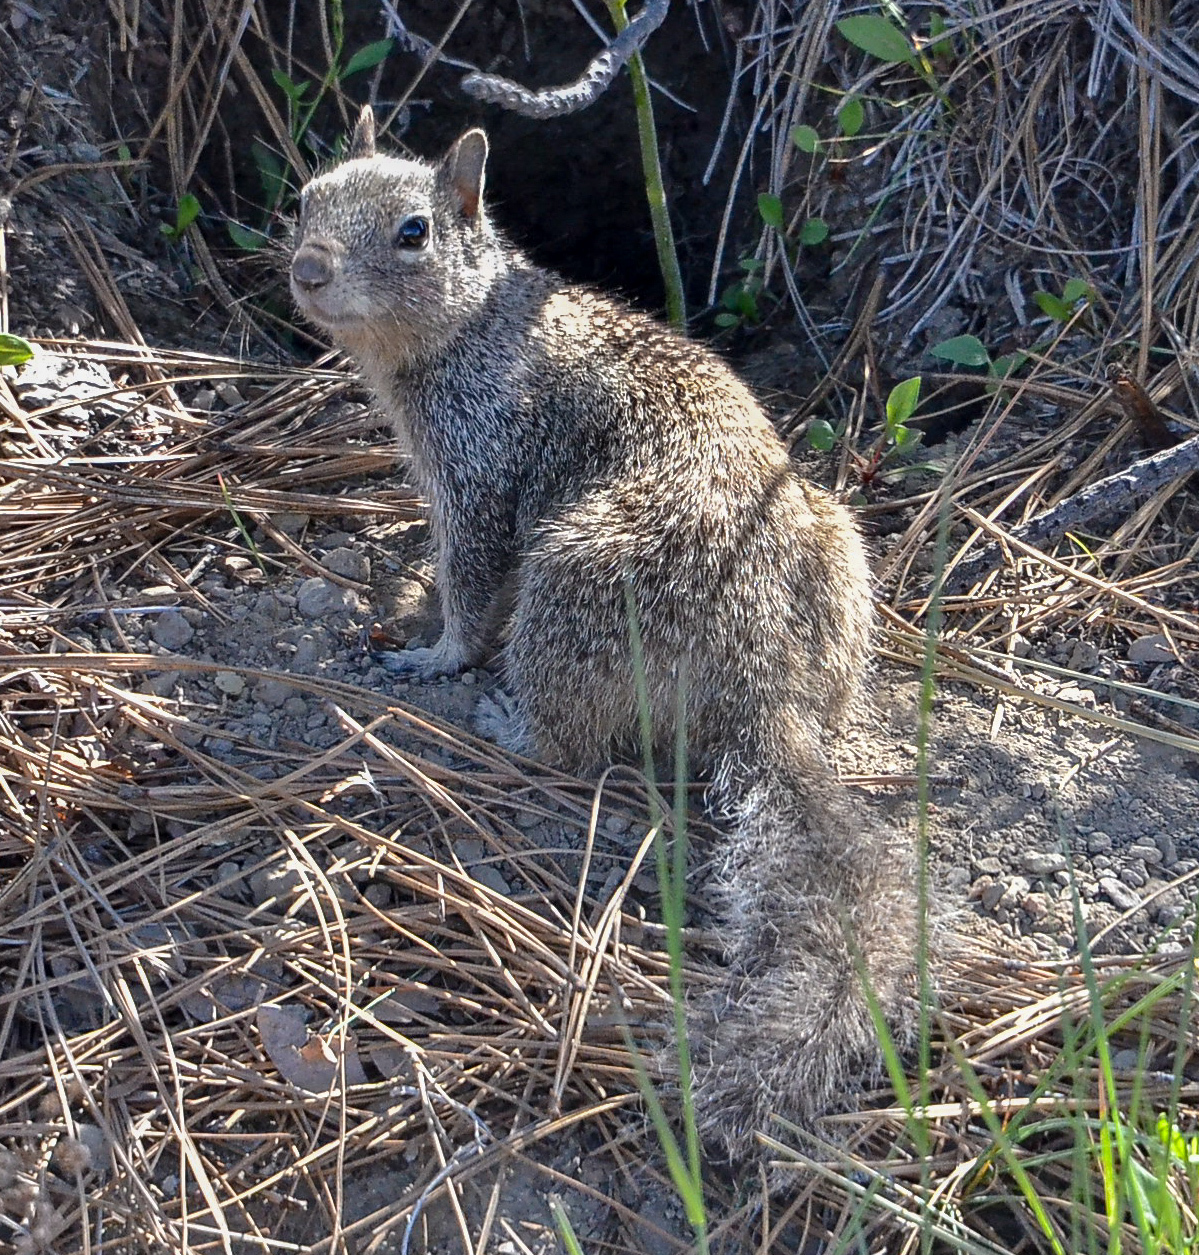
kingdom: Animalia
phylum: Chordata
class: Mammalia
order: Rodentia
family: Sciuridae
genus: Otospermophilus
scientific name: Otospermophilus beecheyi
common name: California ground squirrel
